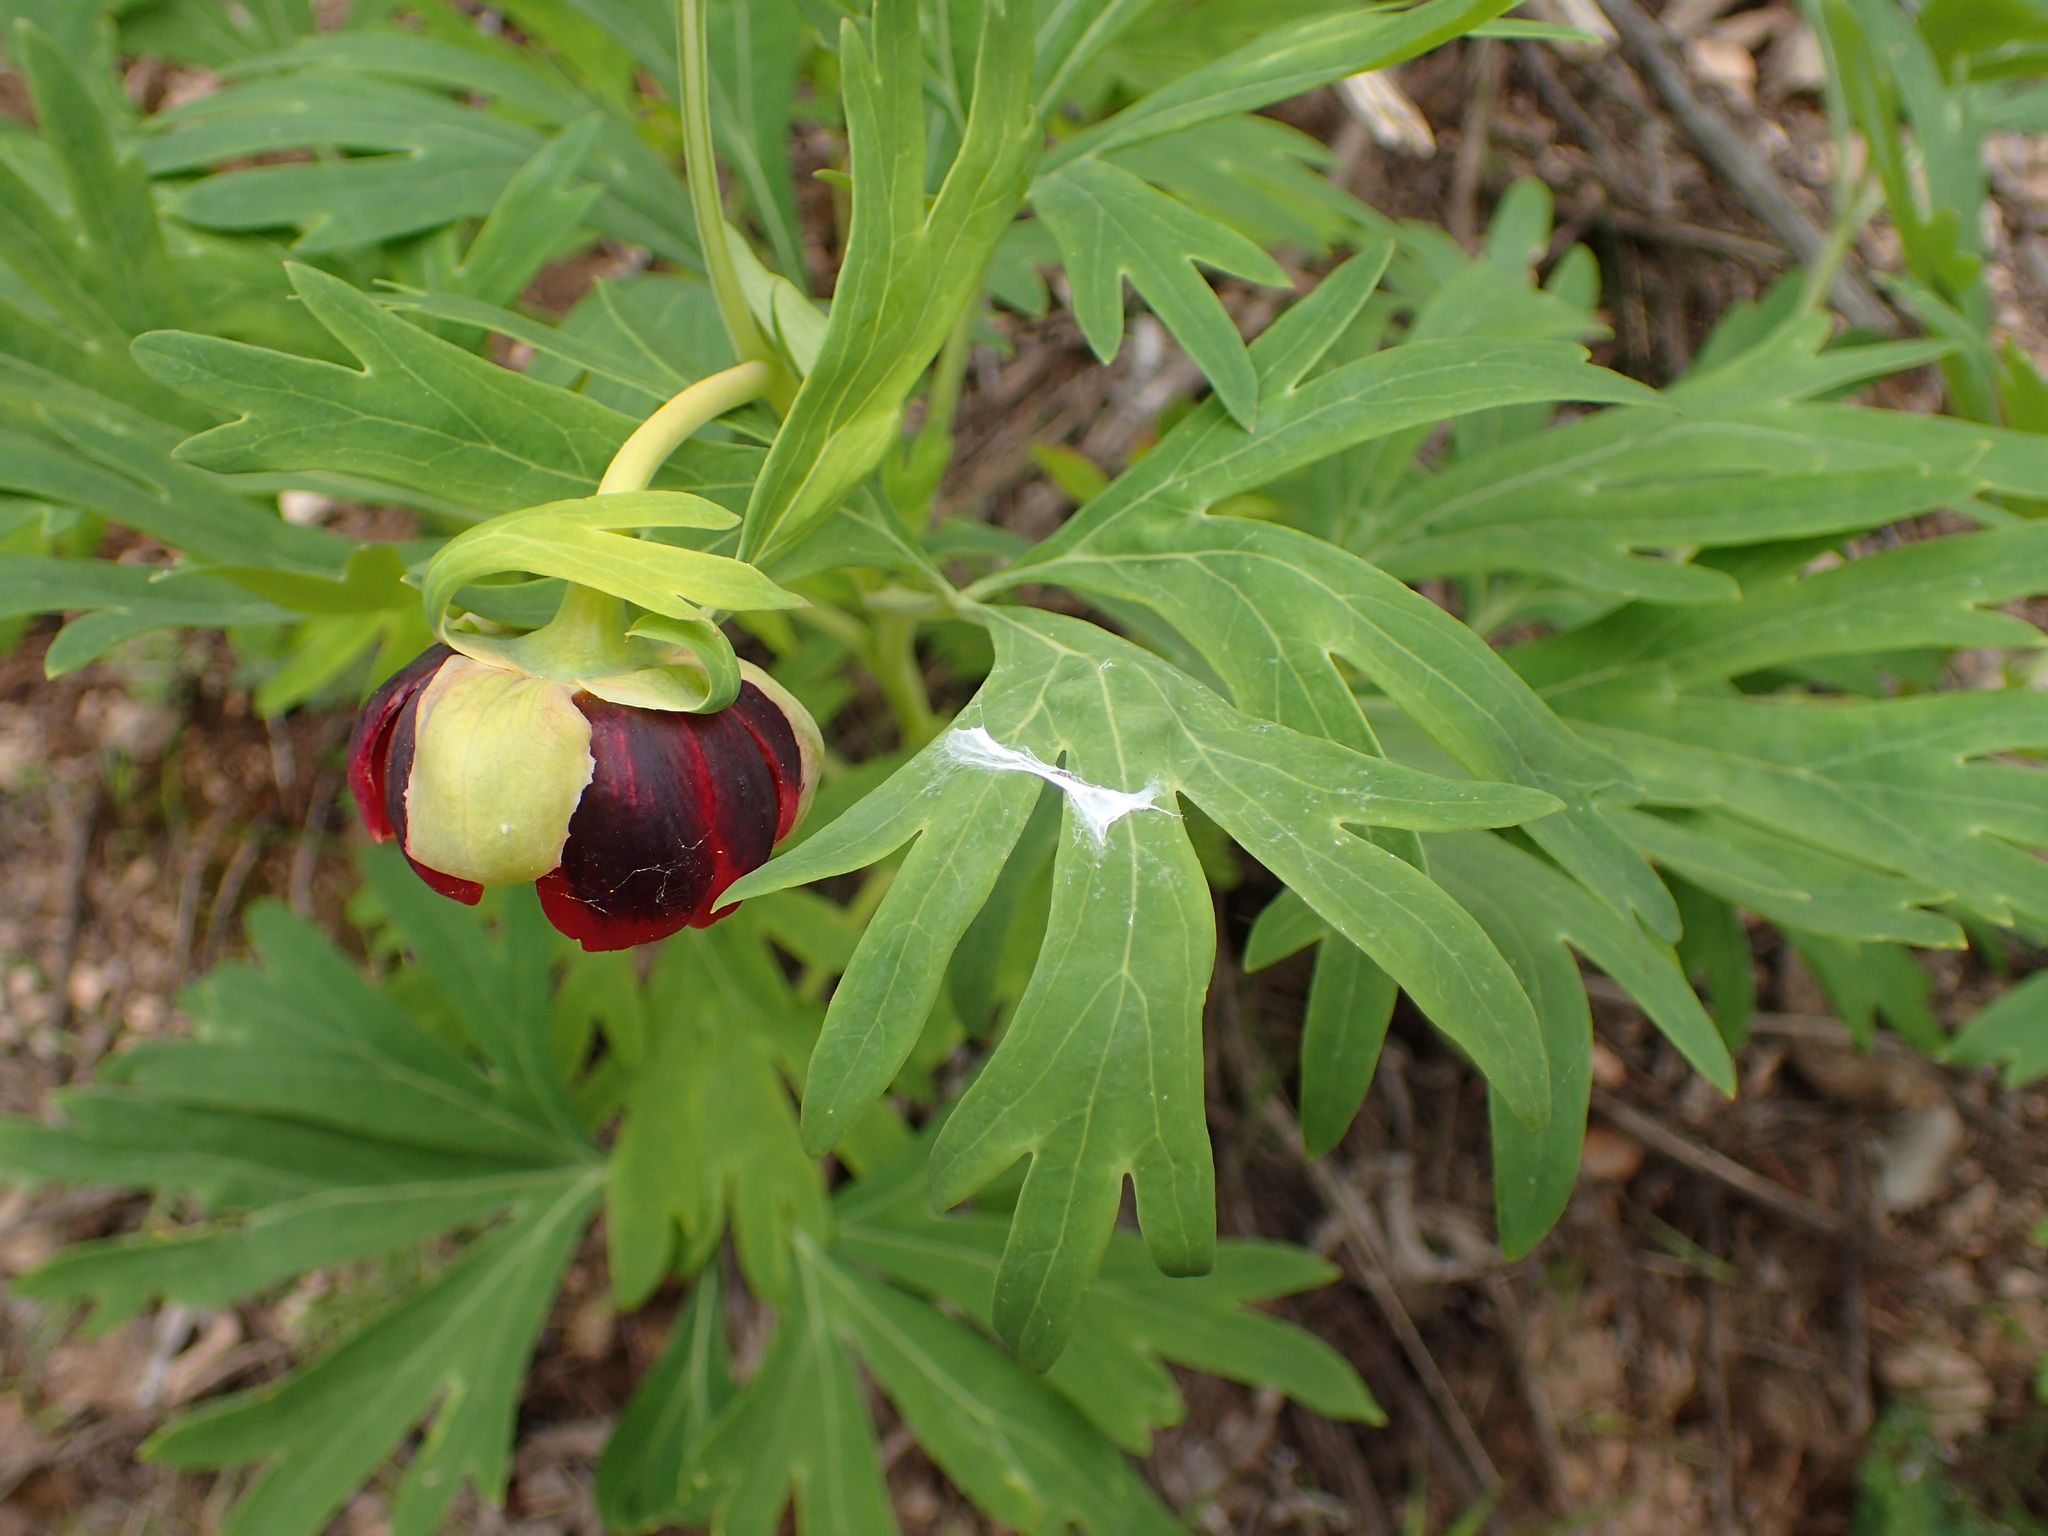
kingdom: Plantae
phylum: Tracheophyta
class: Magnoliopsida
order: Saxifragales
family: Paeoniaceae
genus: Paeonia
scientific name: Paeonia californica
